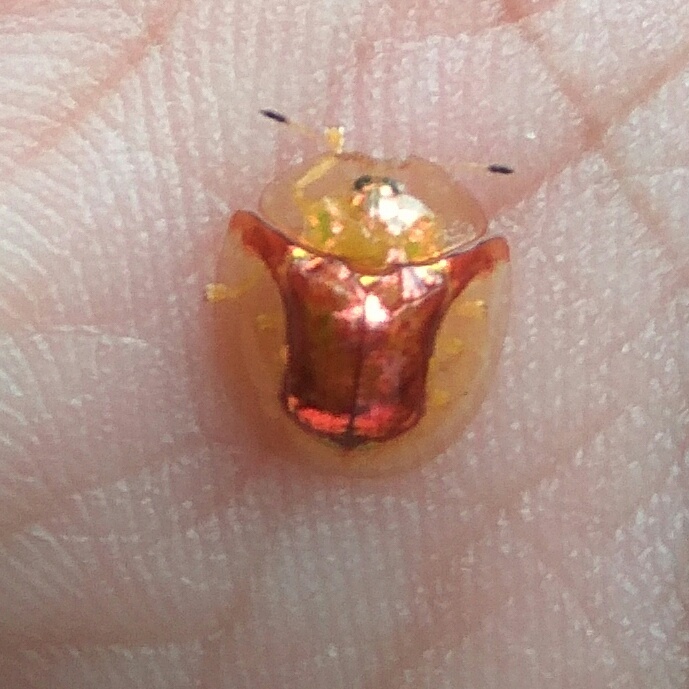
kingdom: Animalia
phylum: Arthropoda
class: Insecta
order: Coleoptera
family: Chrysomelidae
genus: Aspidimorpha
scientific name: Aspidimorpha furcata
